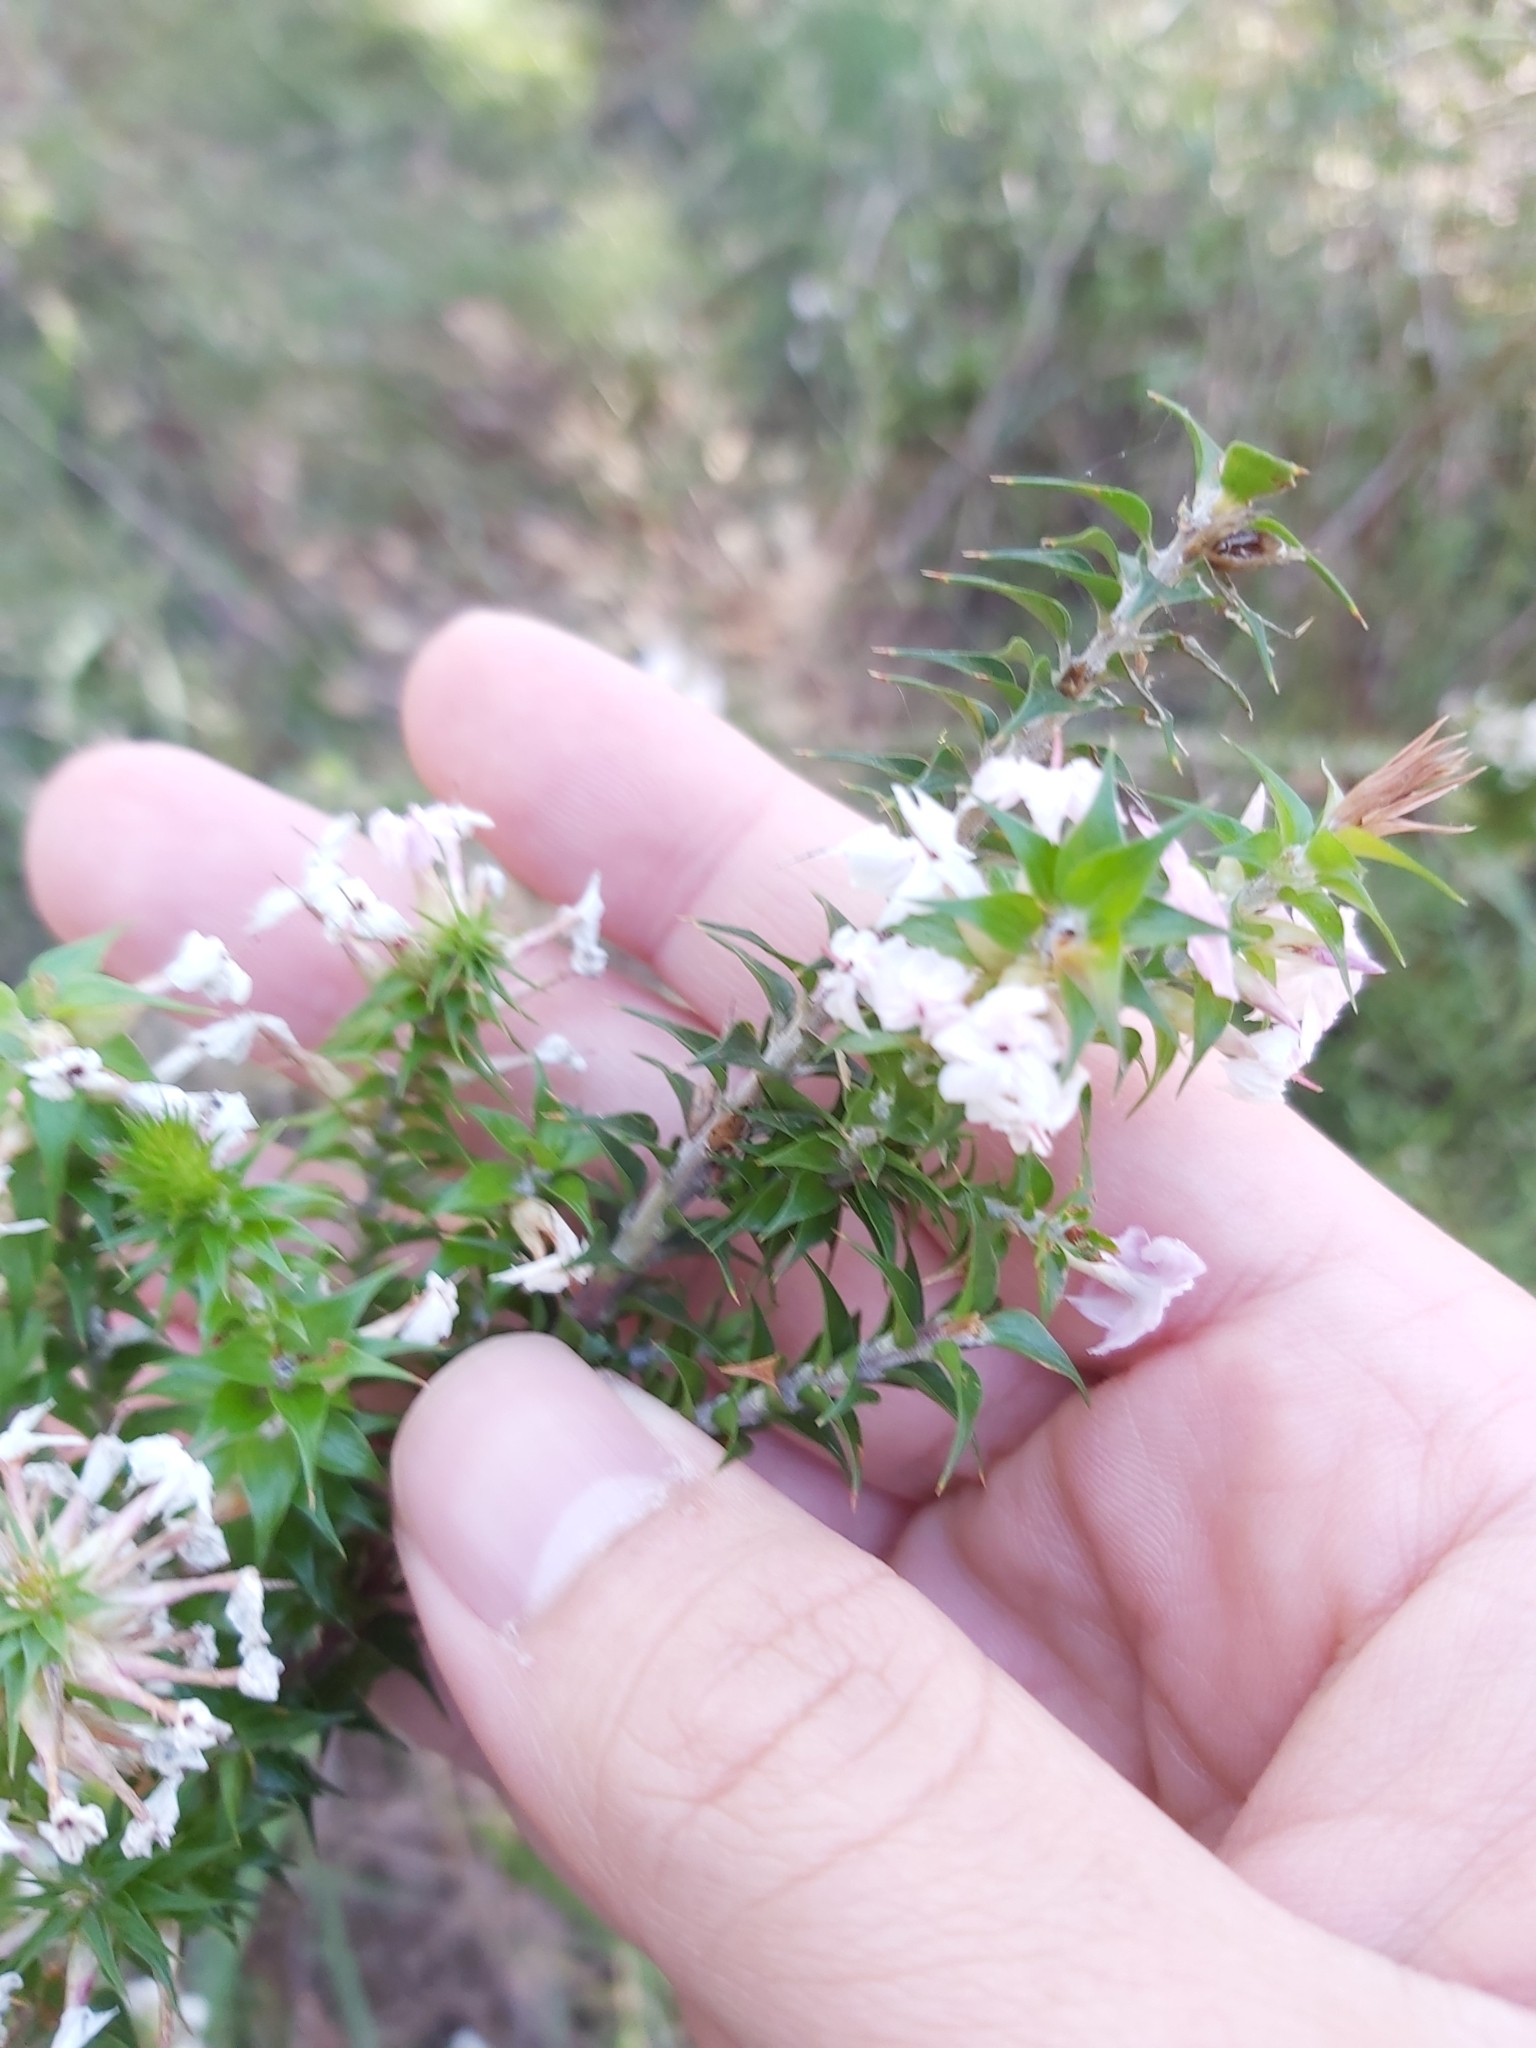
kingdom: Plantae
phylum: Tracheophyta
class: Magnoliopsida
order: Ericales
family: Ericaceae
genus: Woollsia
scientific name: Woollsia pungens
